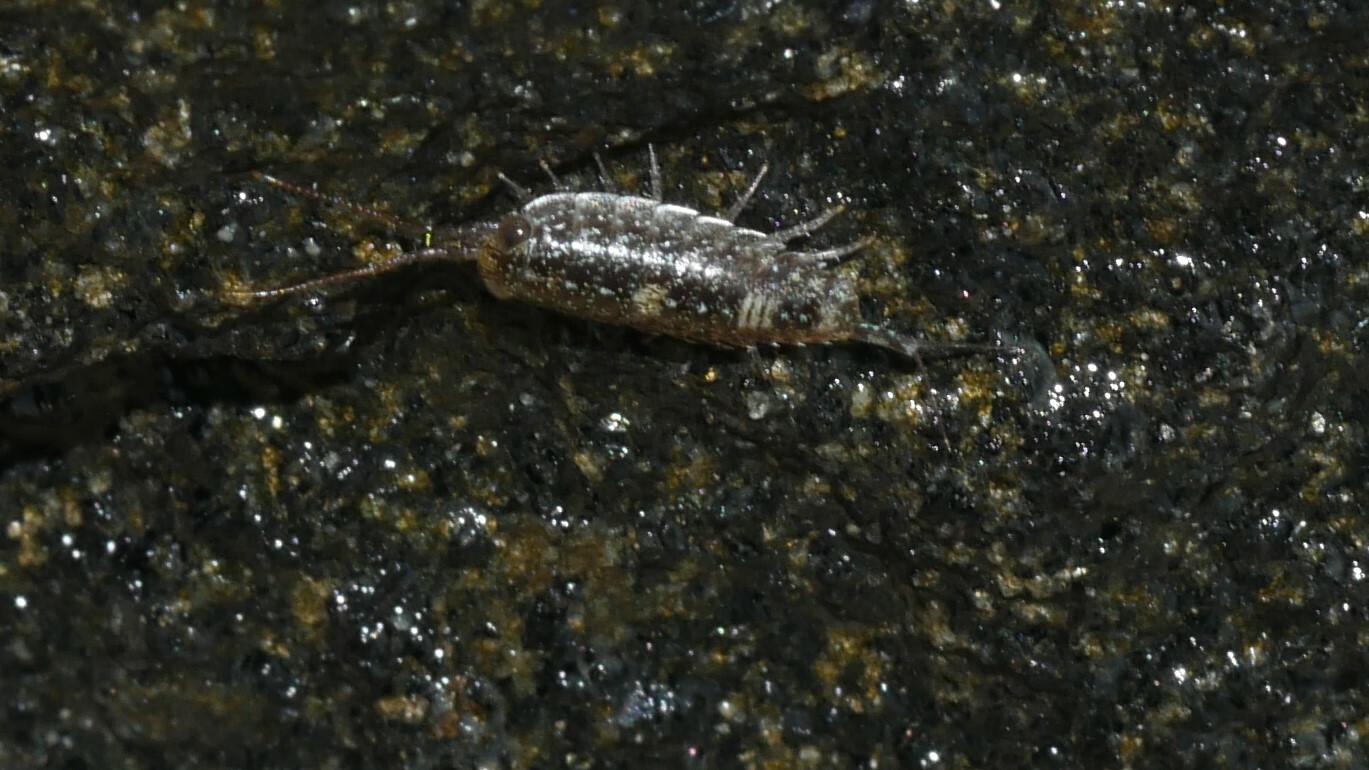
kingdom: Animalia
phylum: Arthropoda
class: Malacostraca
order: Isopoda
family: Ligiidae
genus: Ligia
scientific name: Ligia exotica
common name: Wharf roach
